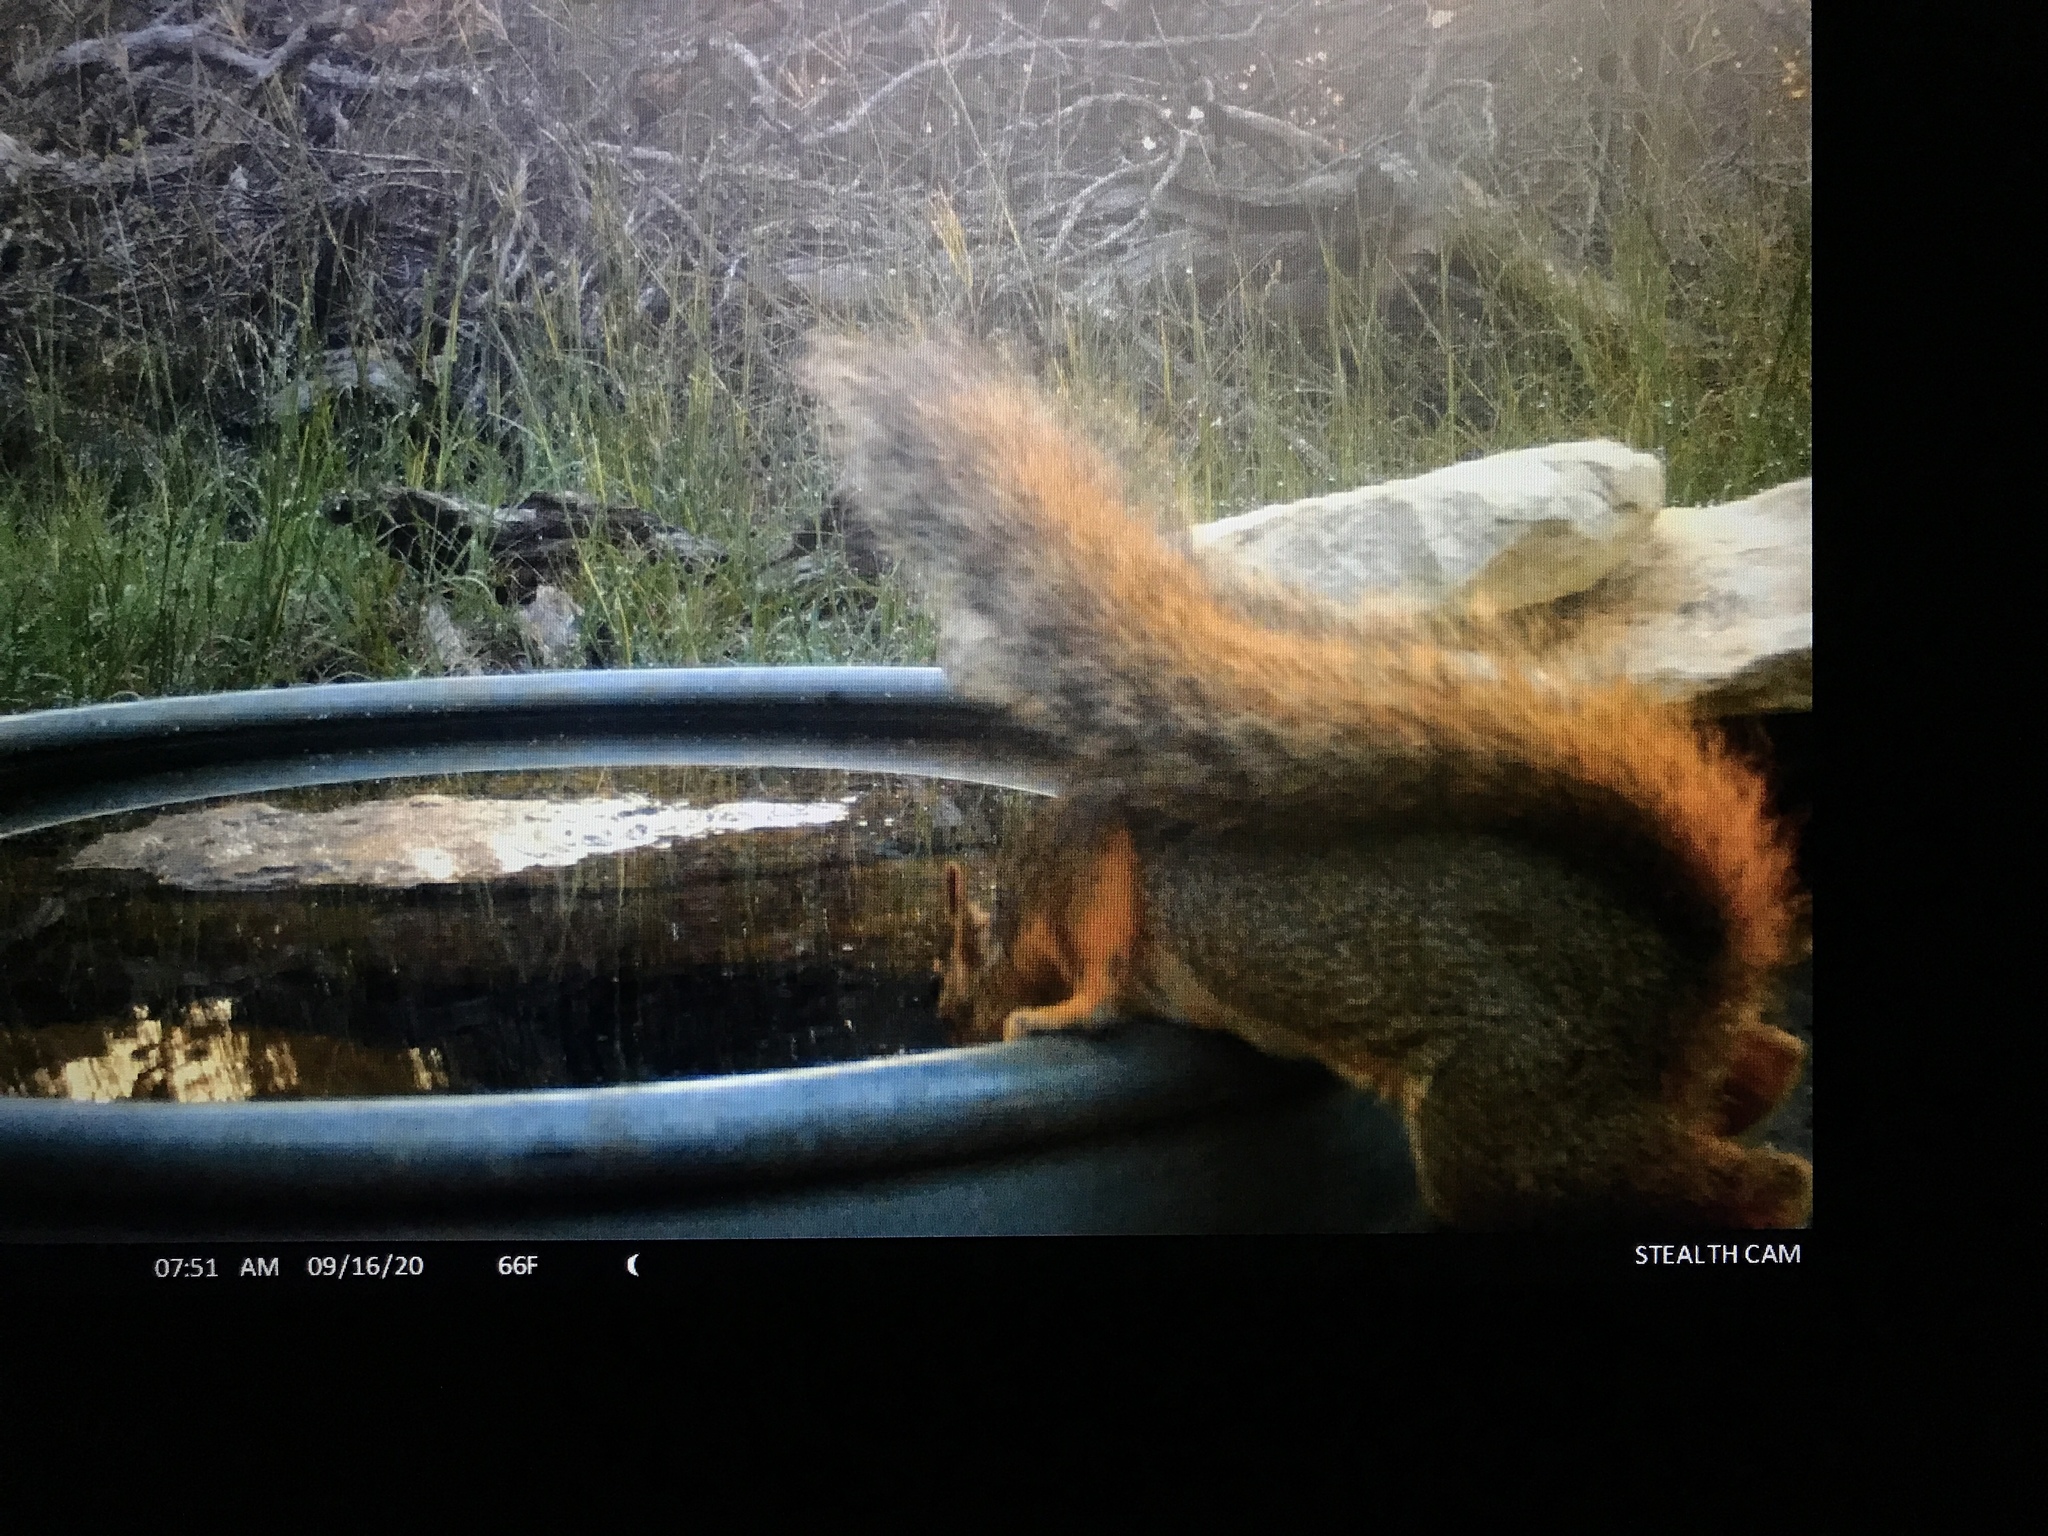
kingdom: Animalia
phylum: Chordata
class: Mammalia
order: Rodentia
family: Sciuridae
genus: Sciurus
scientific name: Sciurus niger
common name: Fox squirrel
